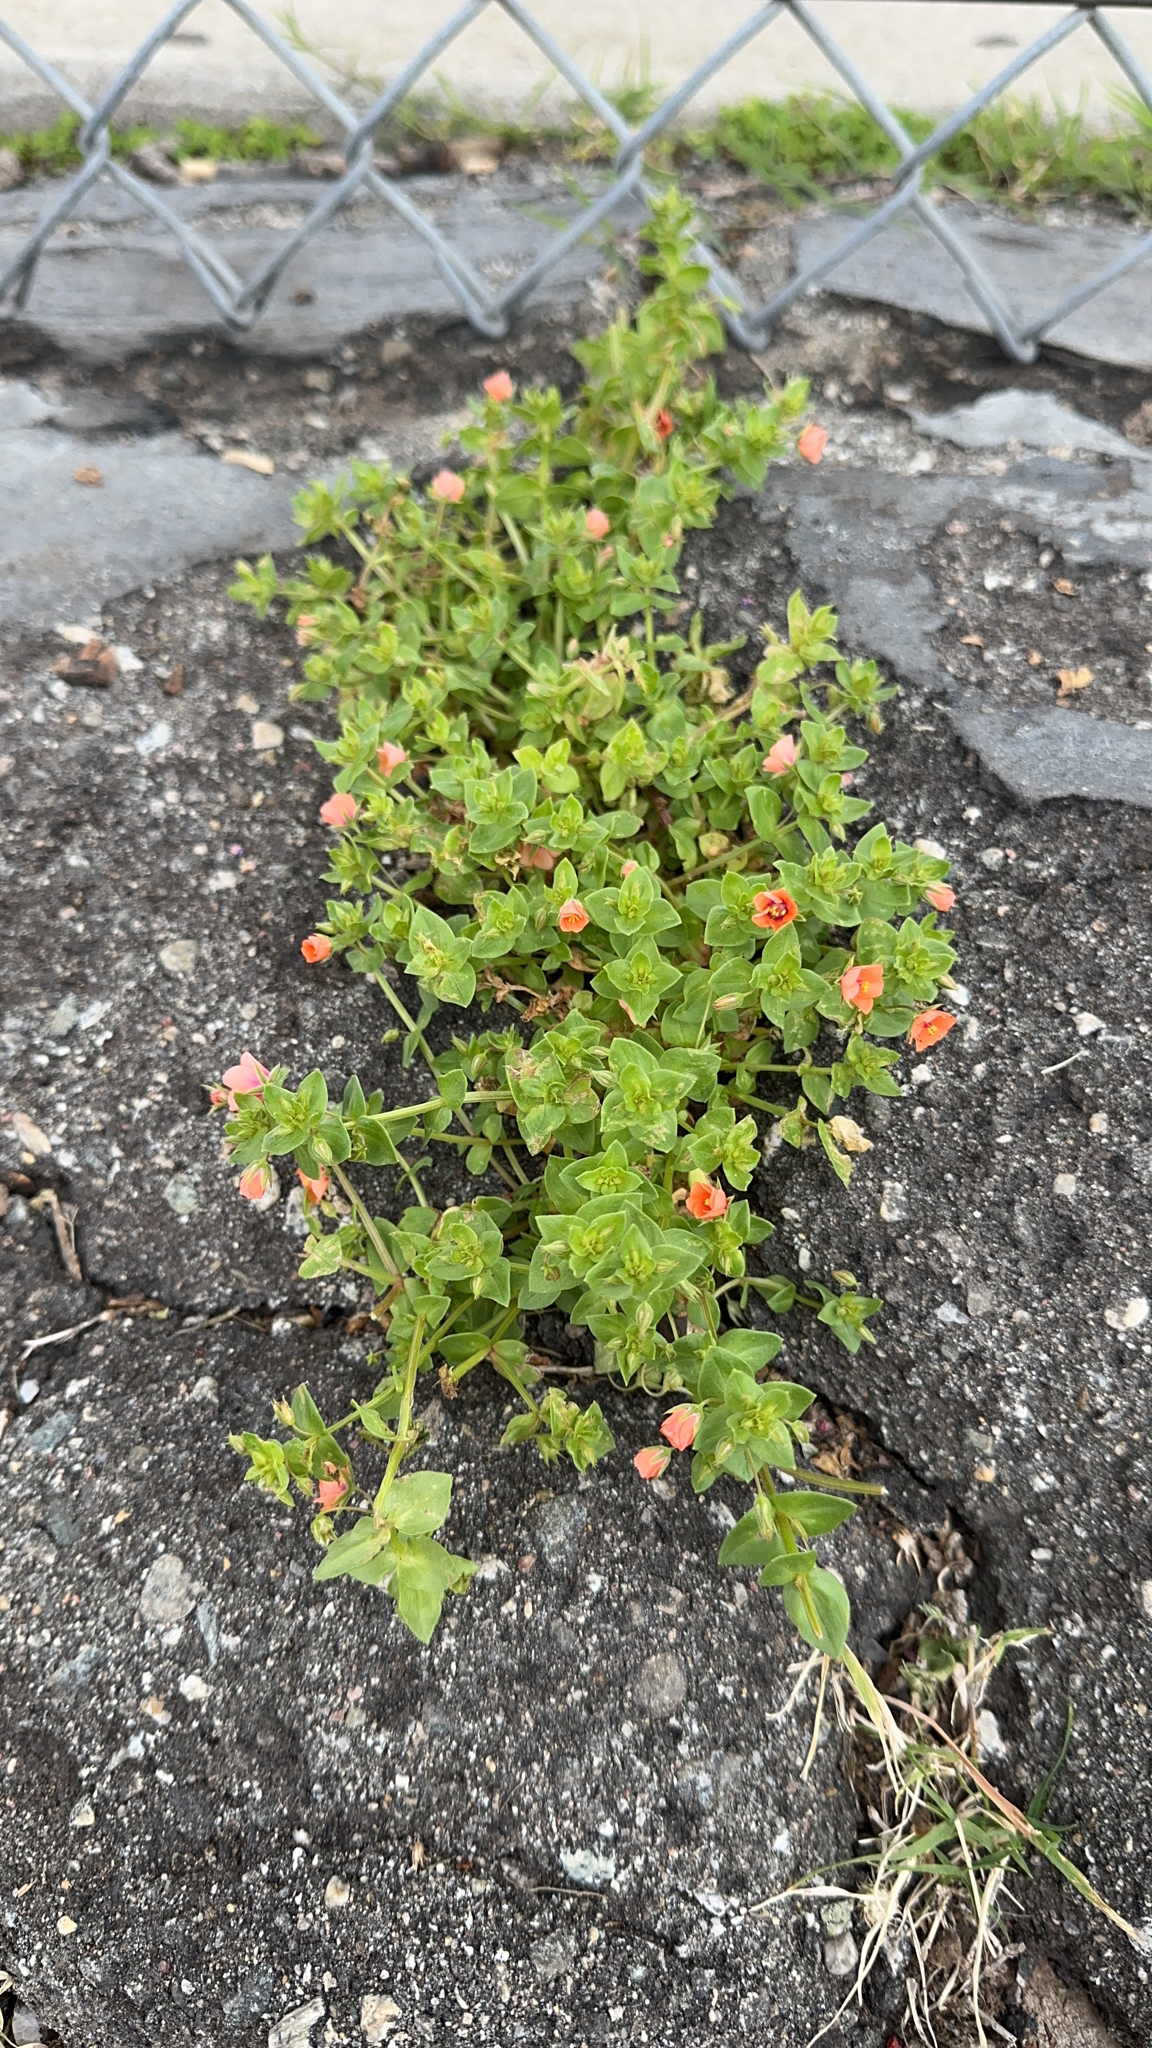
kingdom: Plantae
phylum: Tracheophyta
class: Magnoliopsida
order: Ericales
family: Primulaceae
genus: Lysimachia
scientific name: Lysimachia arvensis
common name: Scarlet pimpernel
